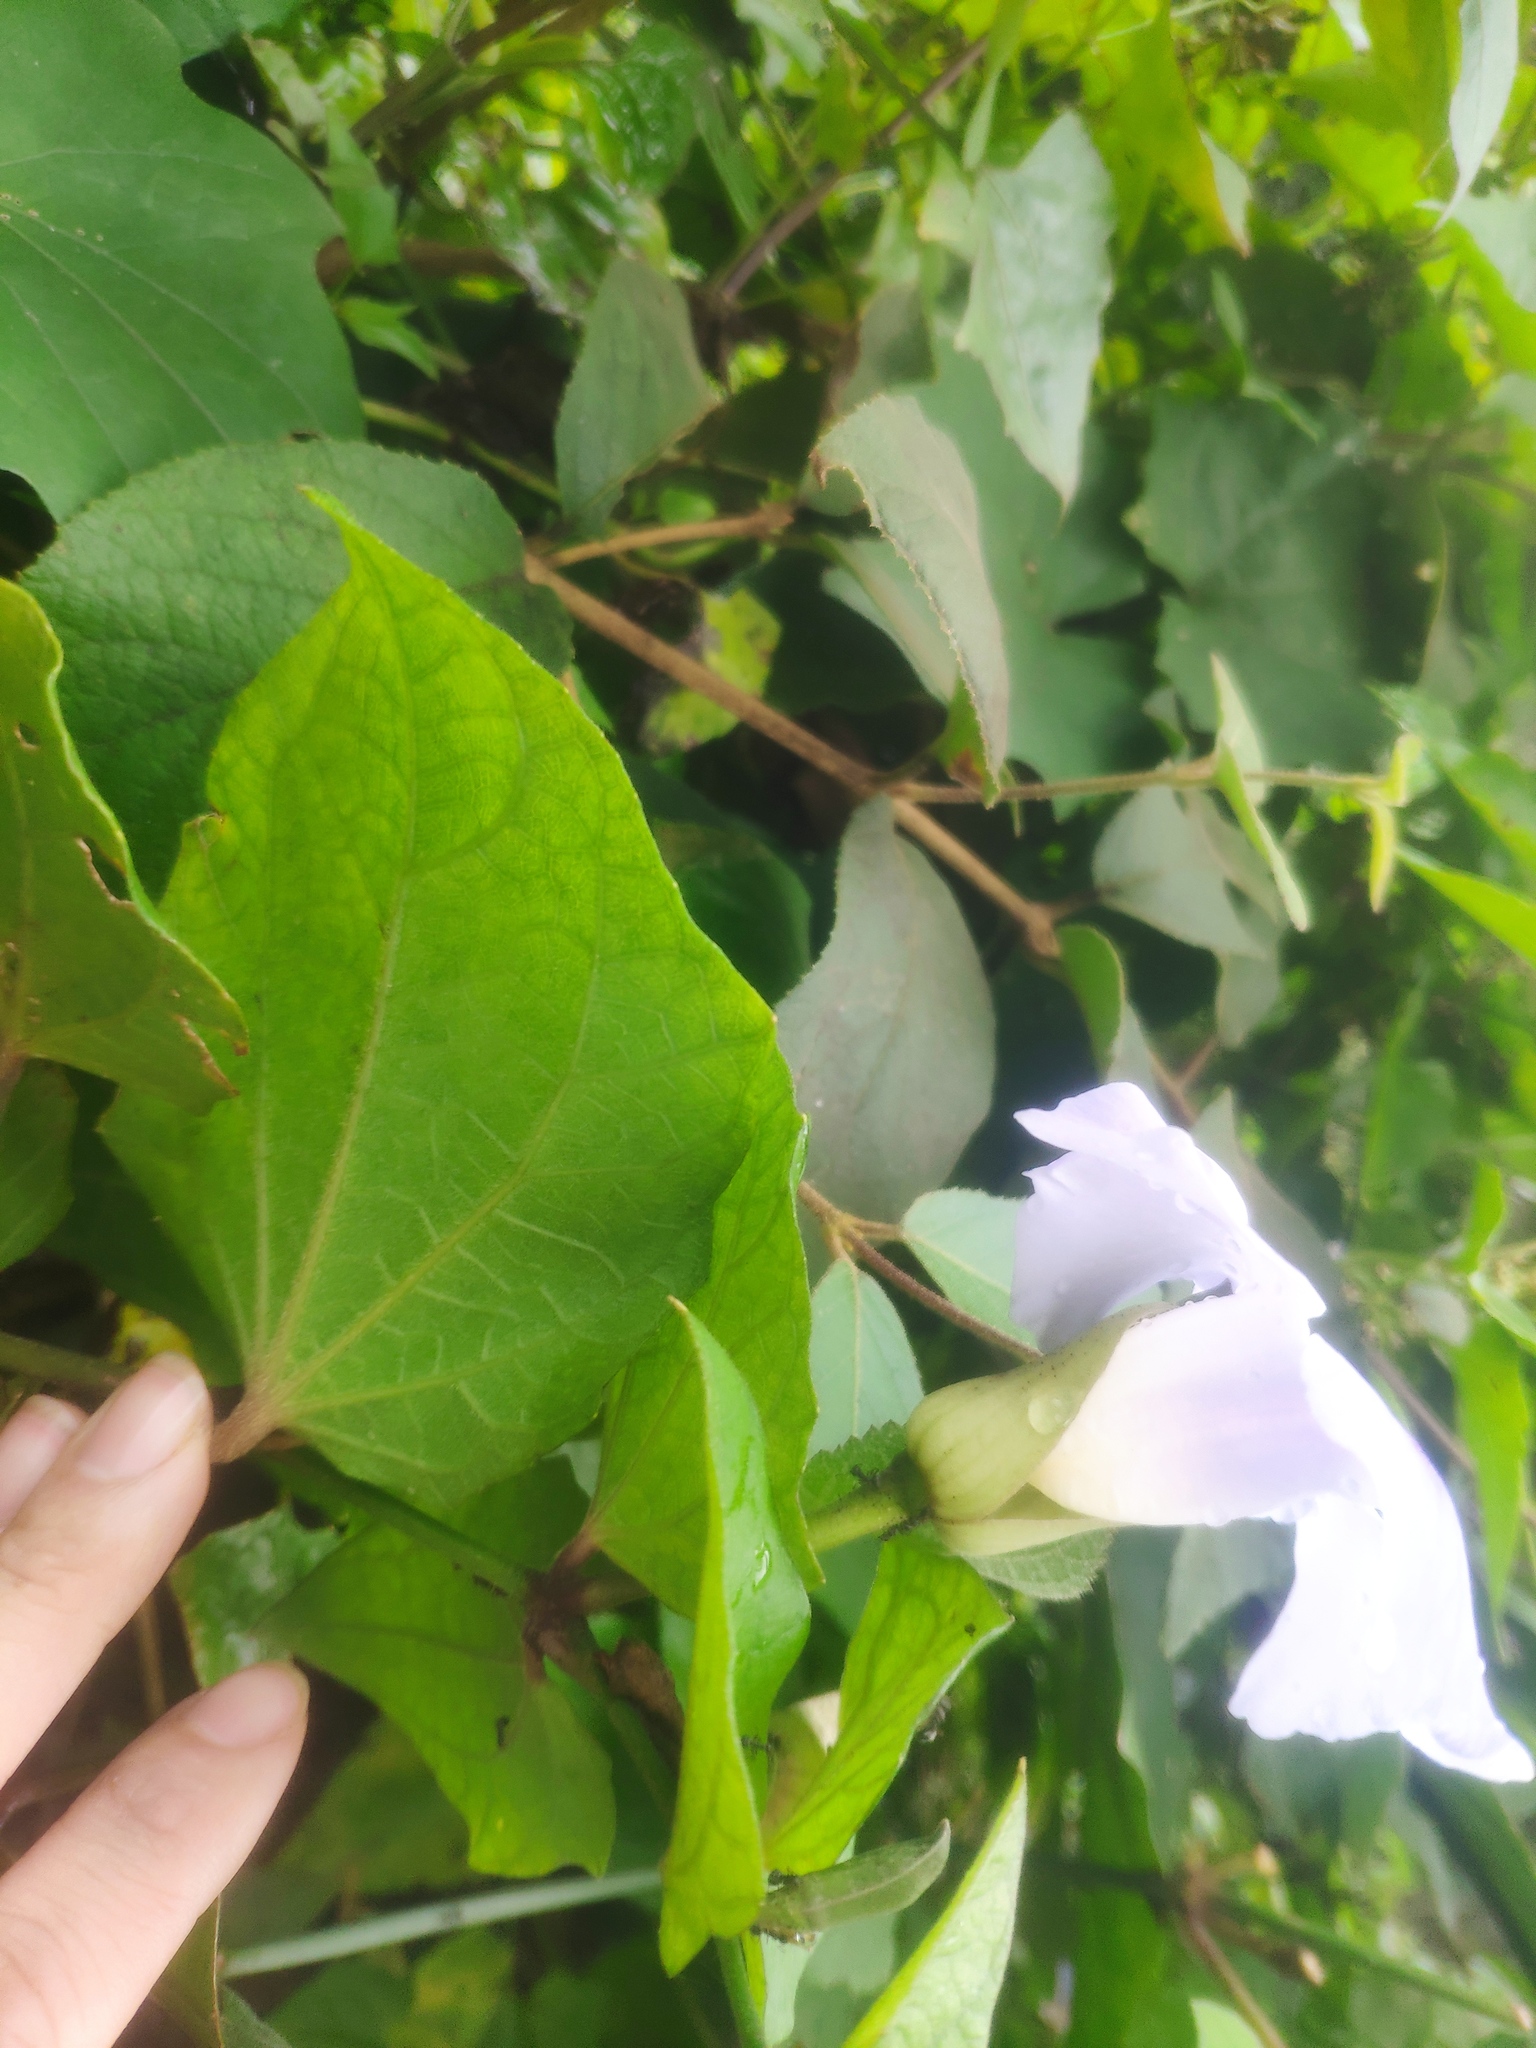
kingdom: Plantae
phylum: Tracheophyta
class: Magnoliopsida
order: Lamiales
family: Acanthaceae
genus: Thunbergia
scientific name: Thunbergia grandiflora
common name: Bengal trumpet
